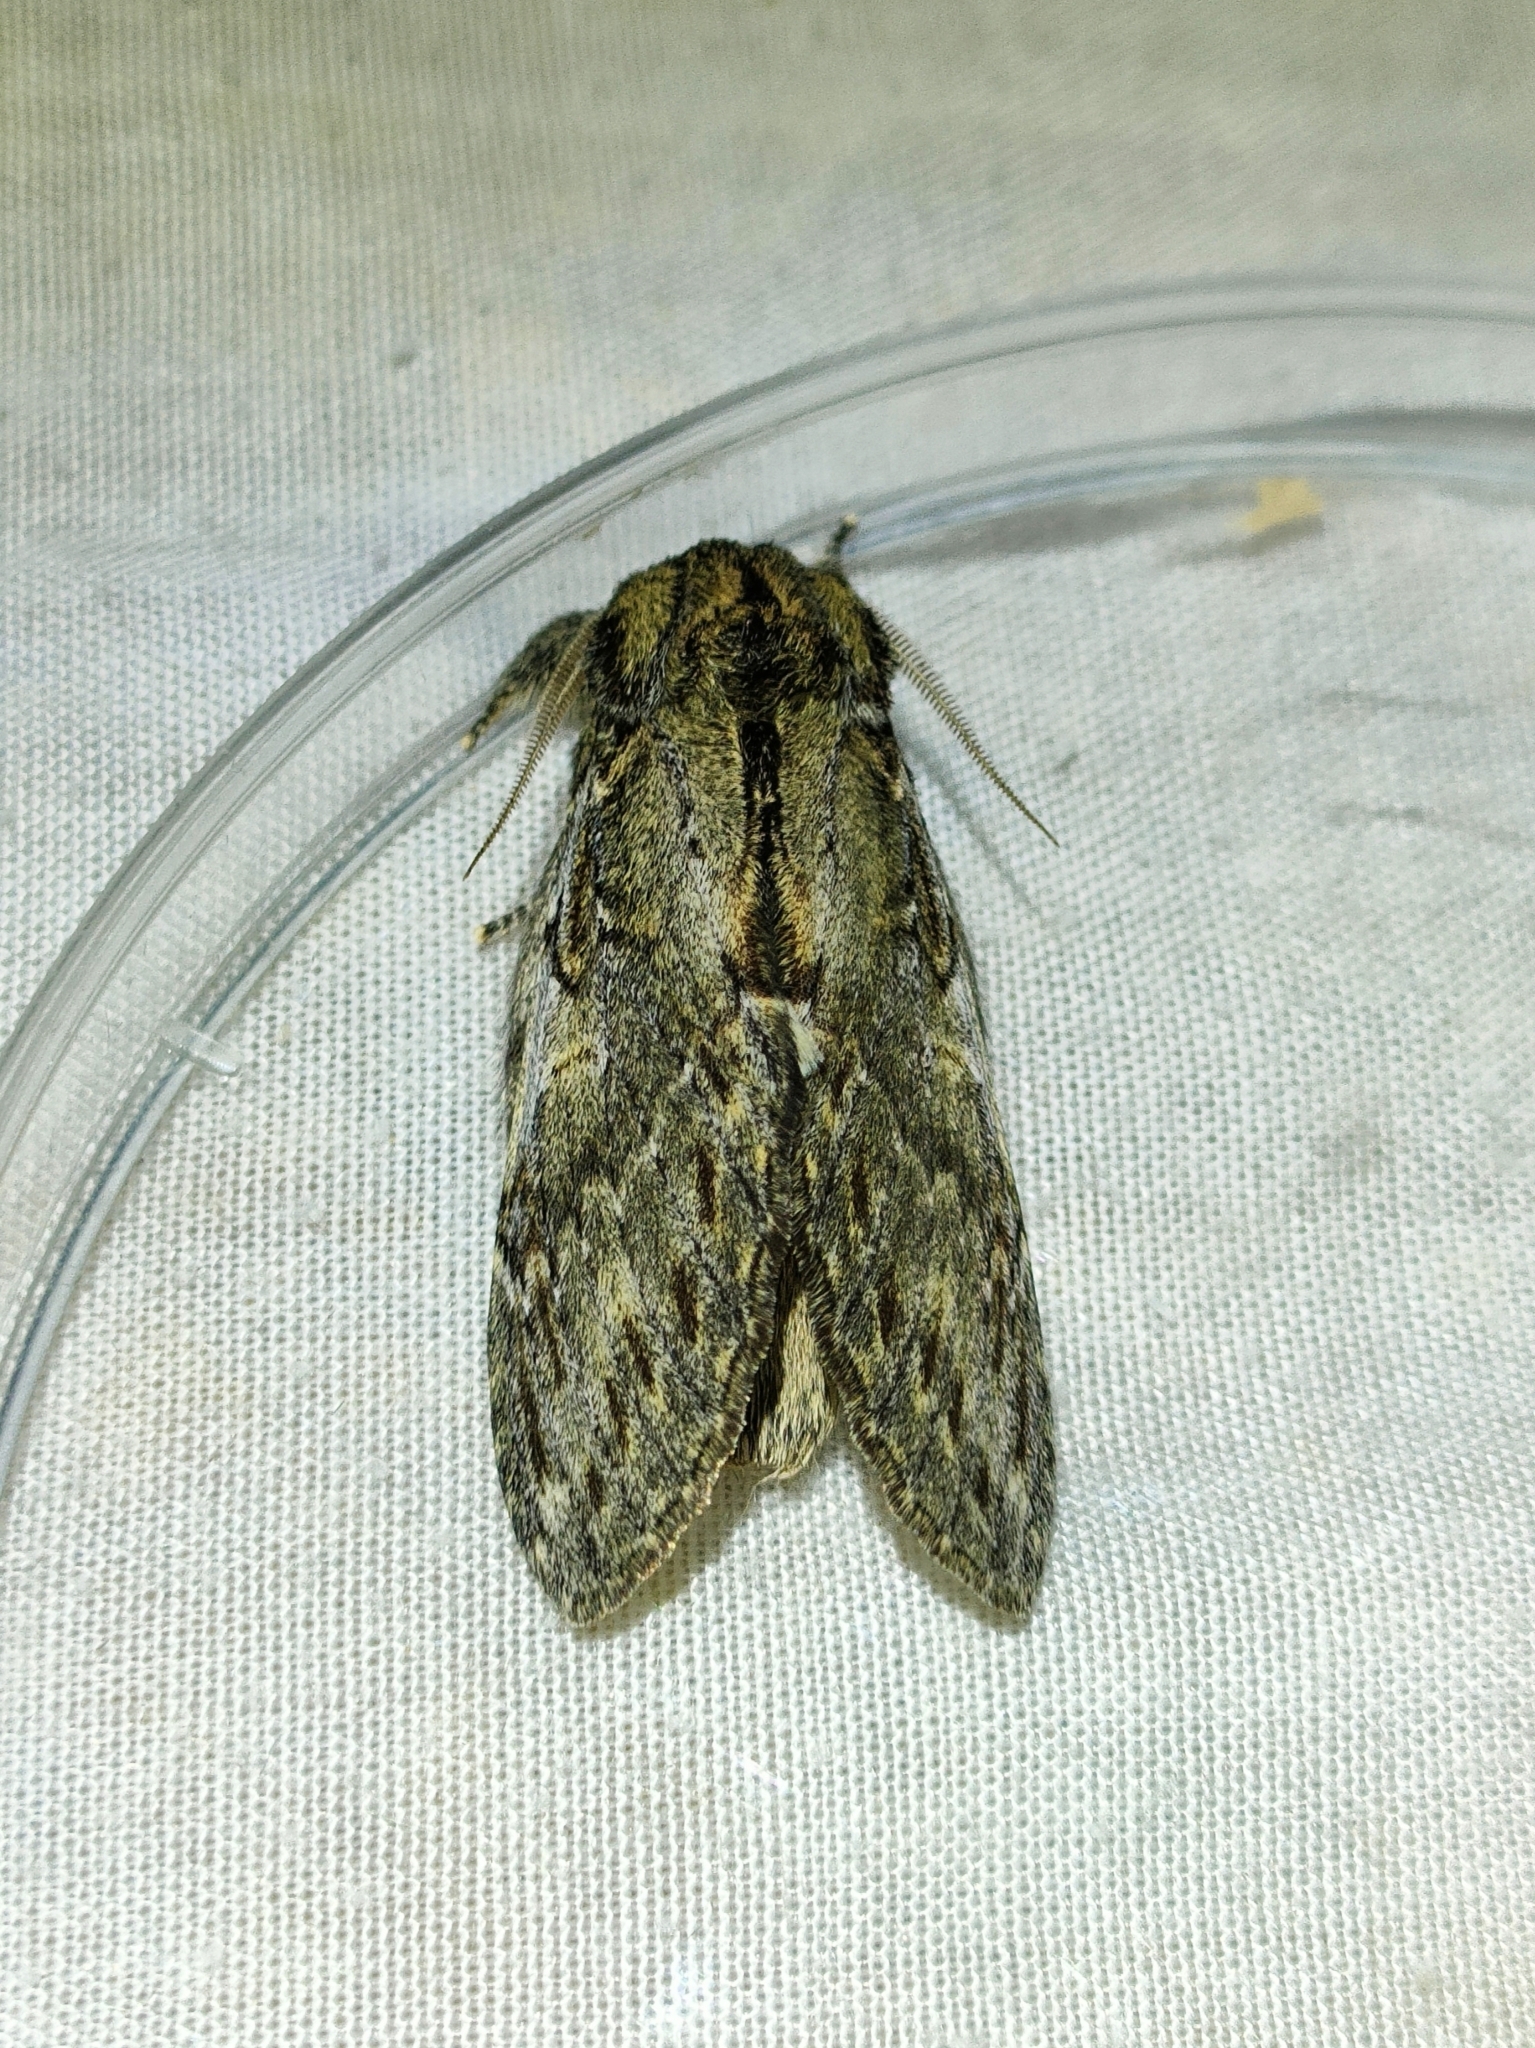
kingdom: Animalia
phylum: Arthropoda
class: Insecta
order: Lepidoptera
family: Notodontidae
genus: Peridea
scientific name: Peridea anceps
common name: Great prominent
